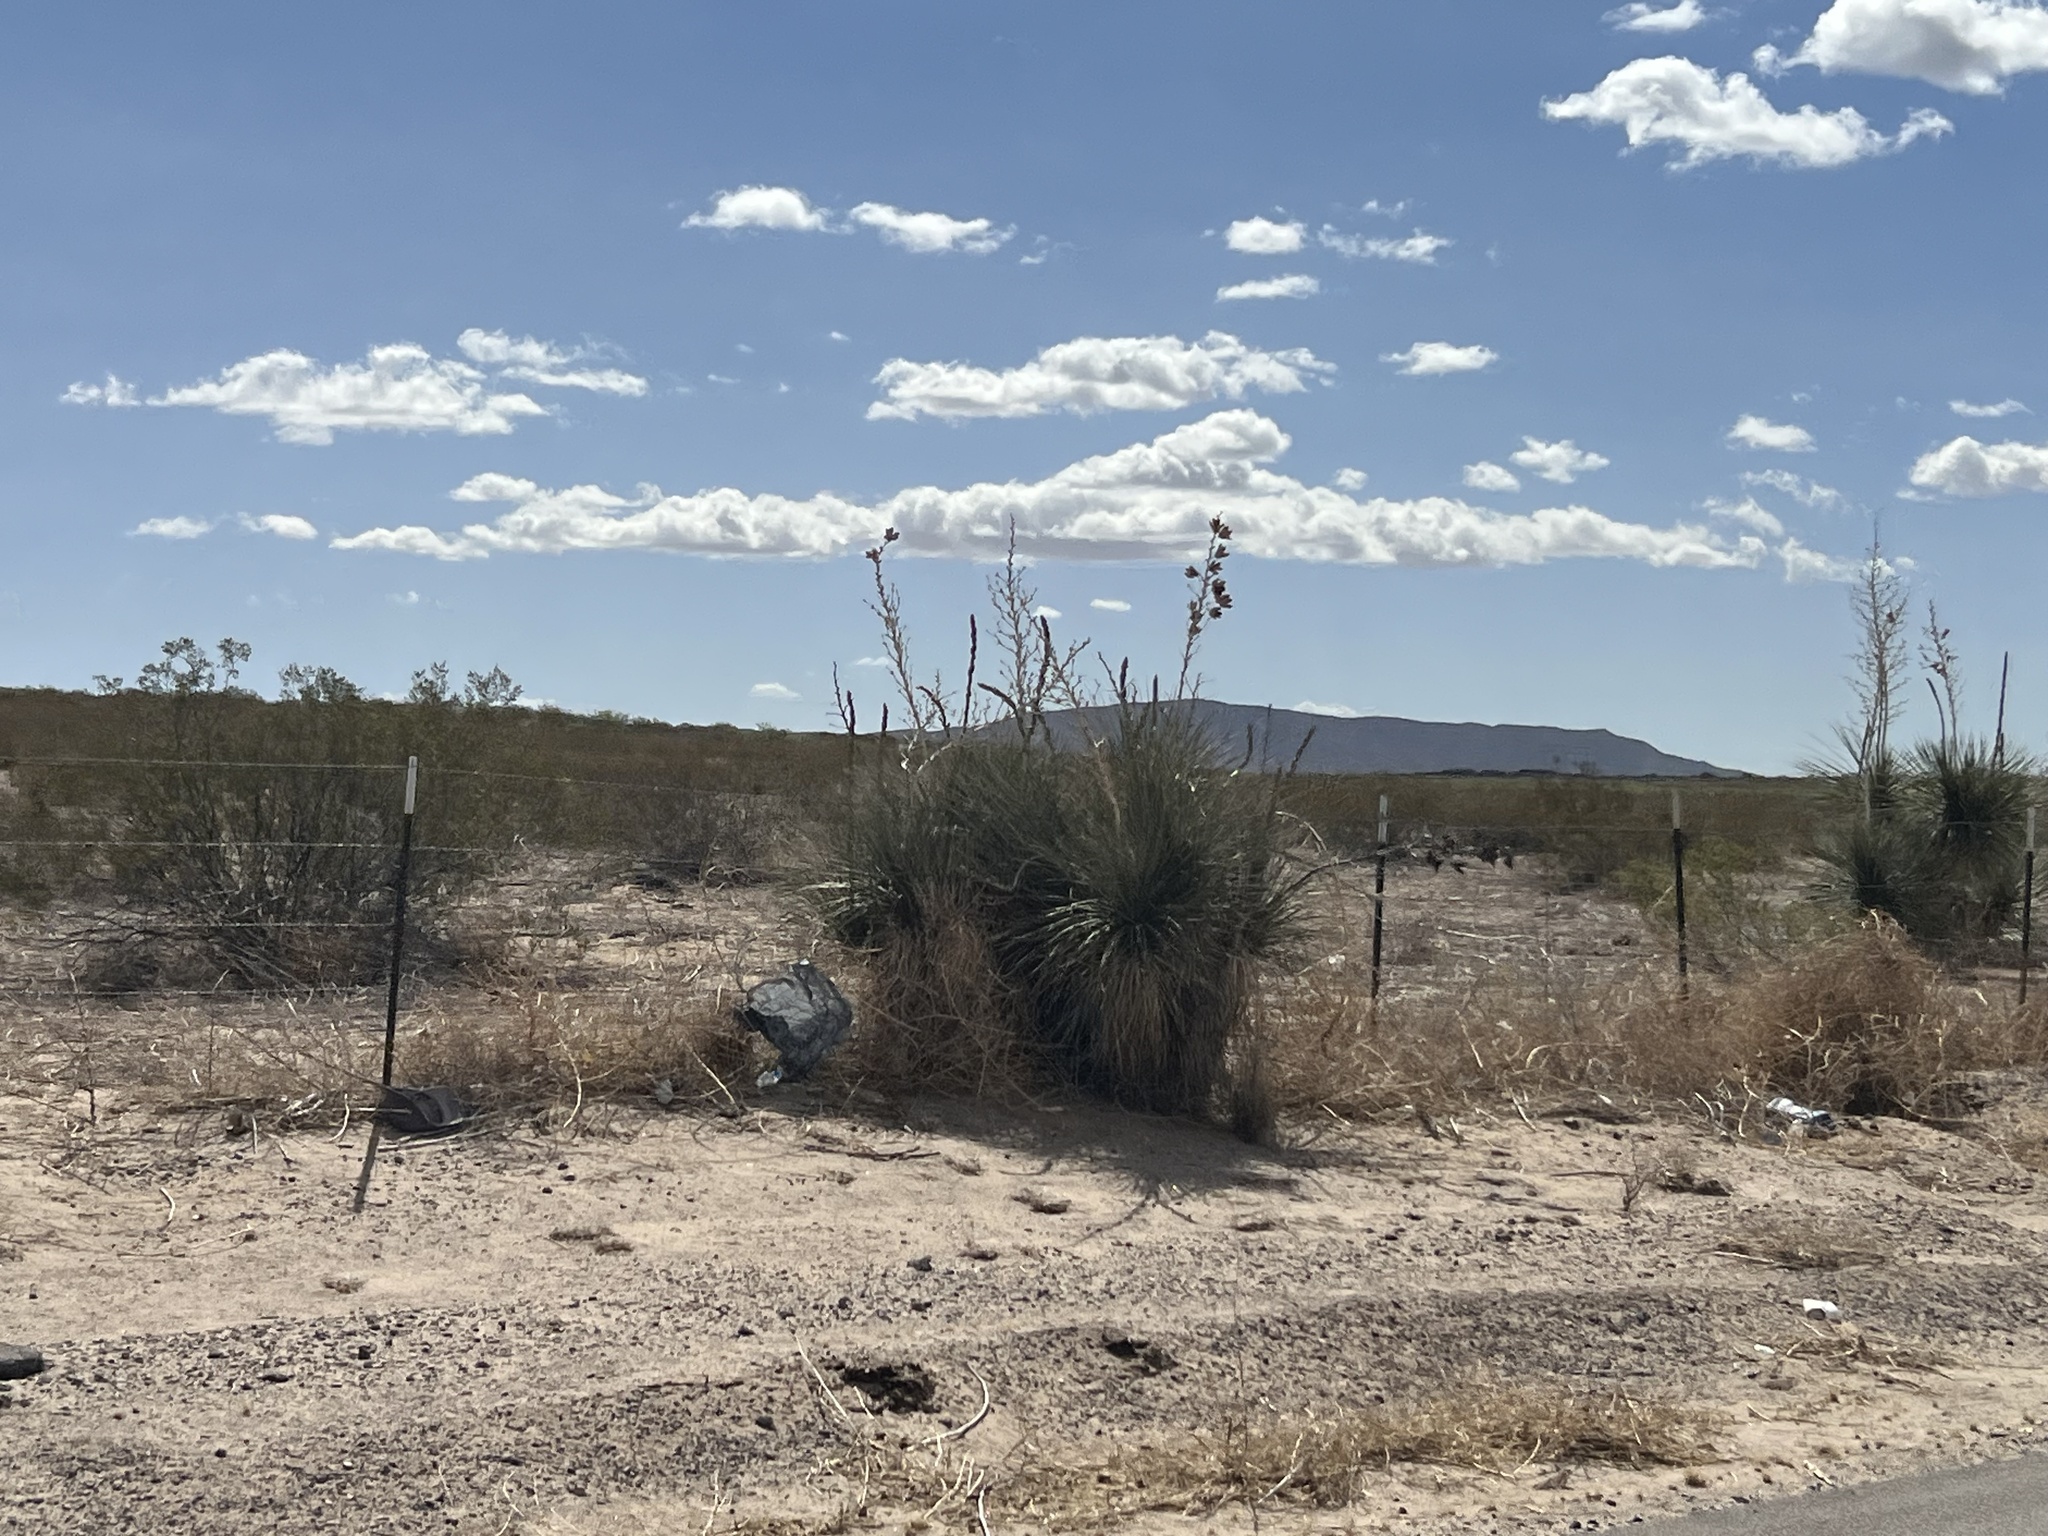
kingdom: Plantae
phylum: Tracheophyta
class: Liliopsida
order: Asparagales
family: Asparagaceae
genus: Yucca
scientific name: Yucca elata
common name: Palmella
